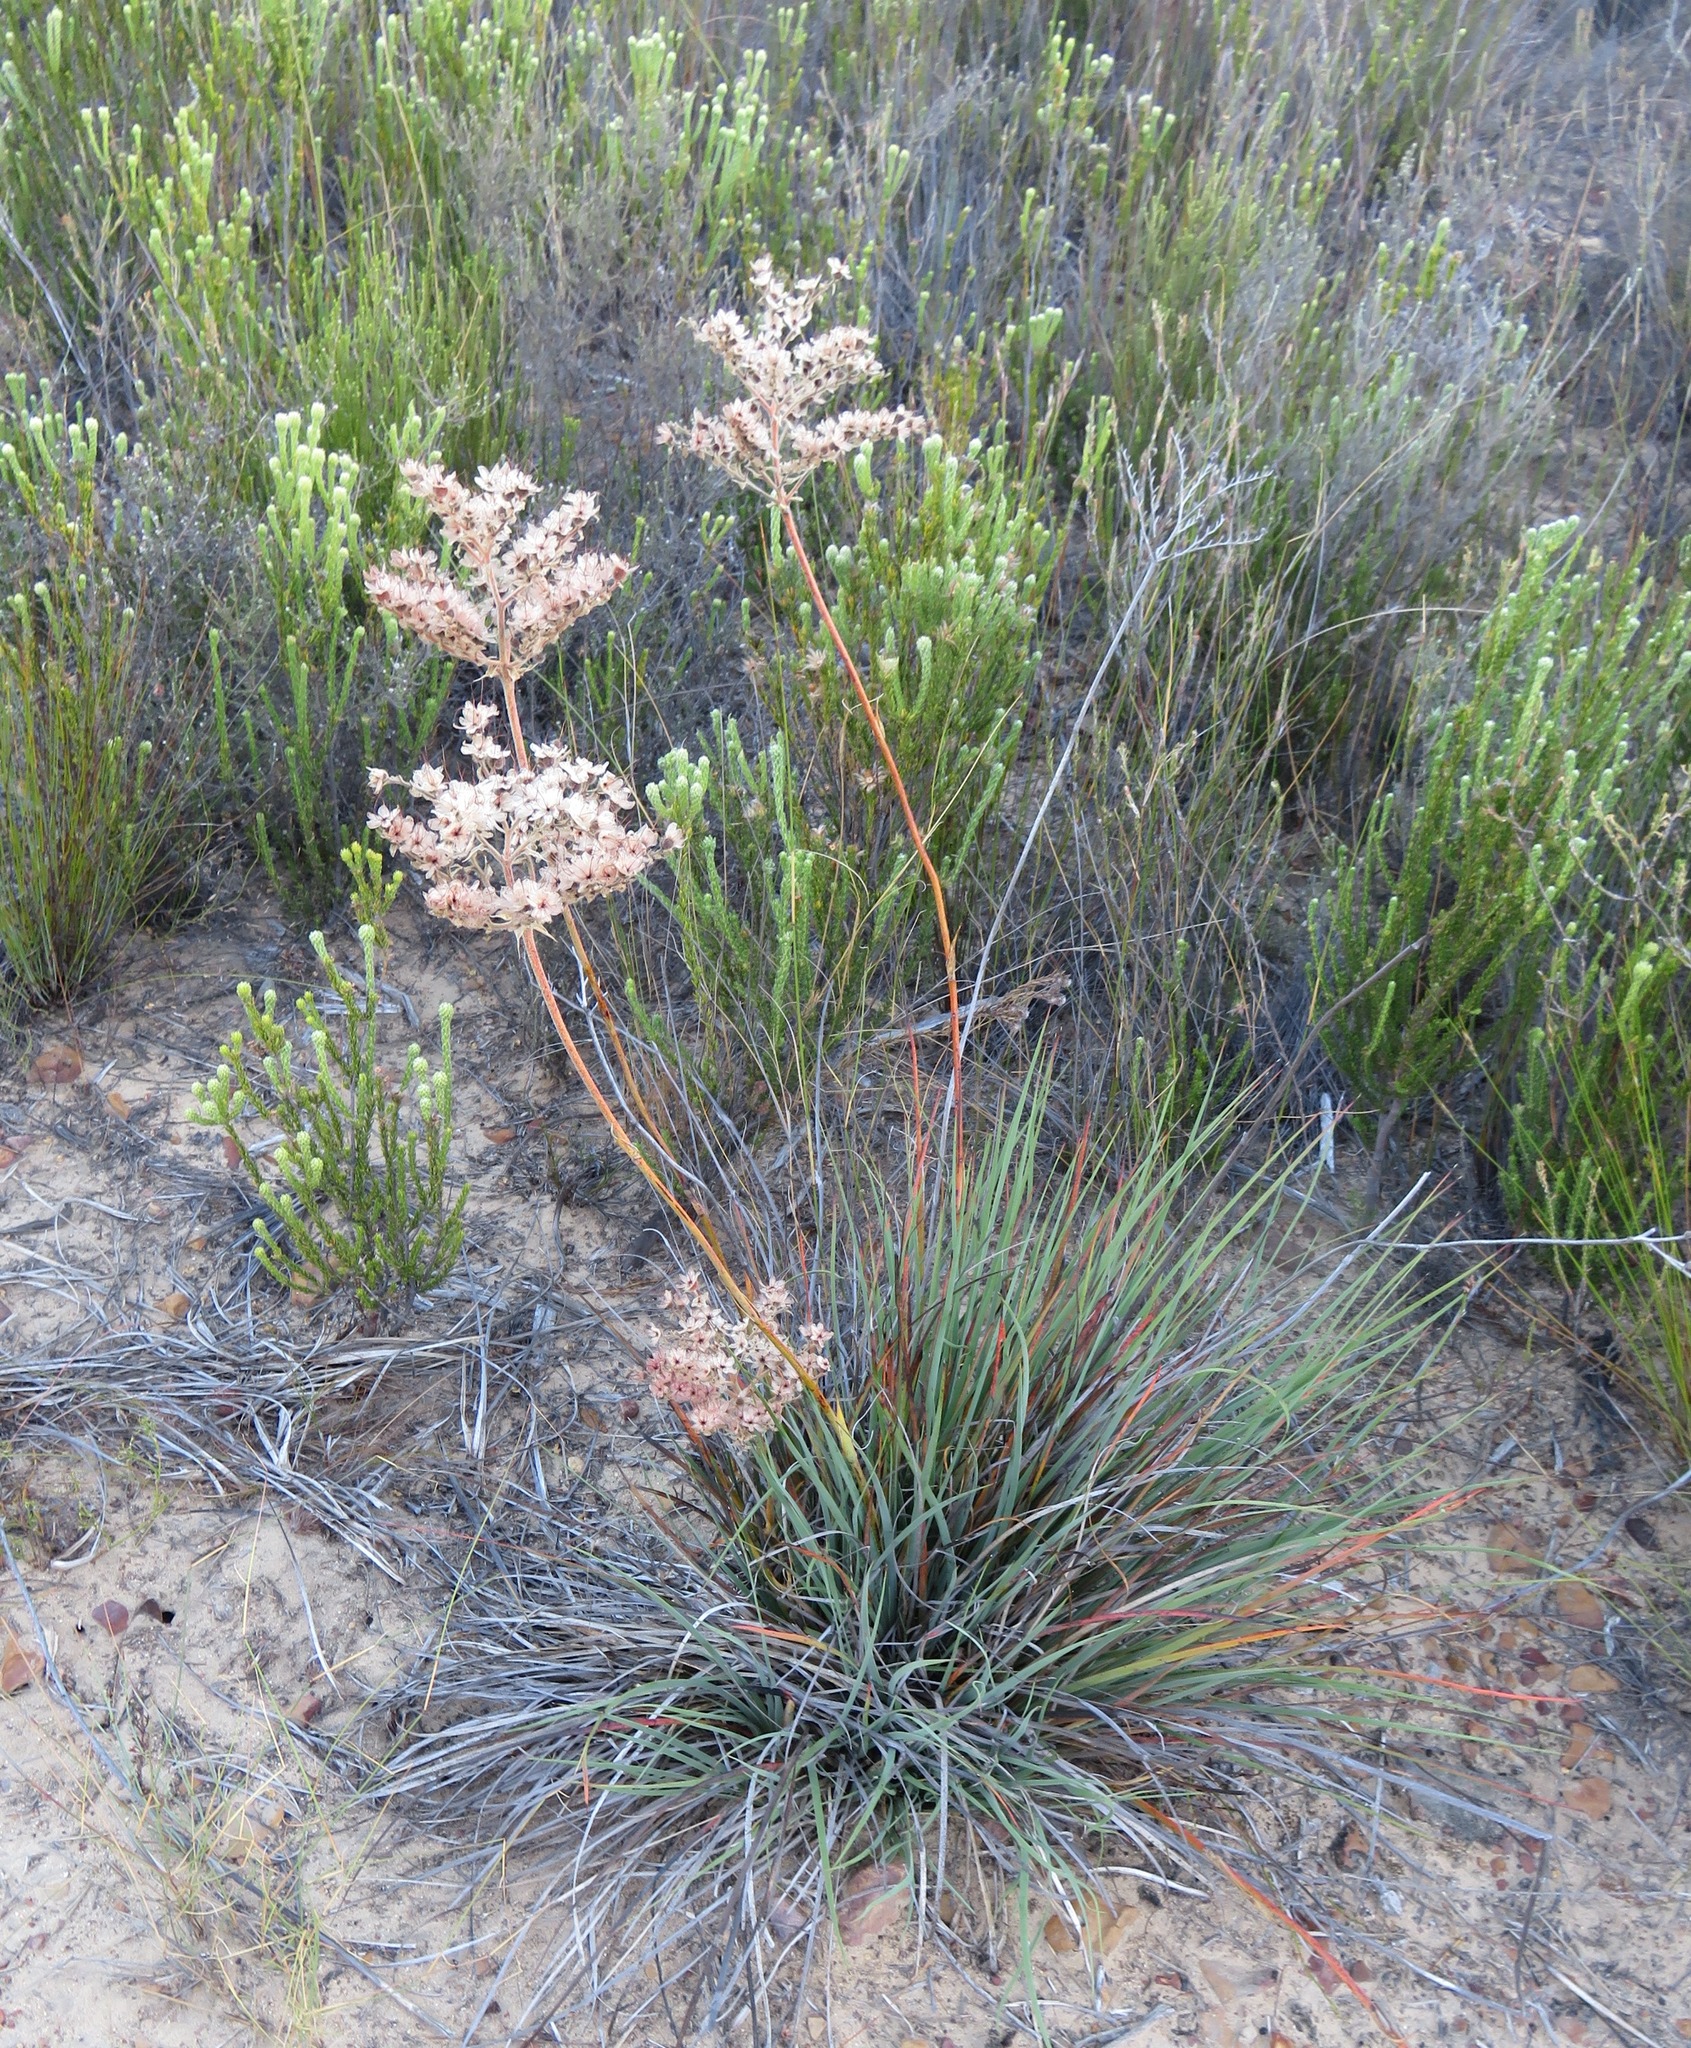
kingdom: Plantae
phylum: Tracheophyta
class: Liliopsida
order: Commelinales
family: Haemodoraceae
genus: Dilatris
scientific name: Dilatris ixioides
